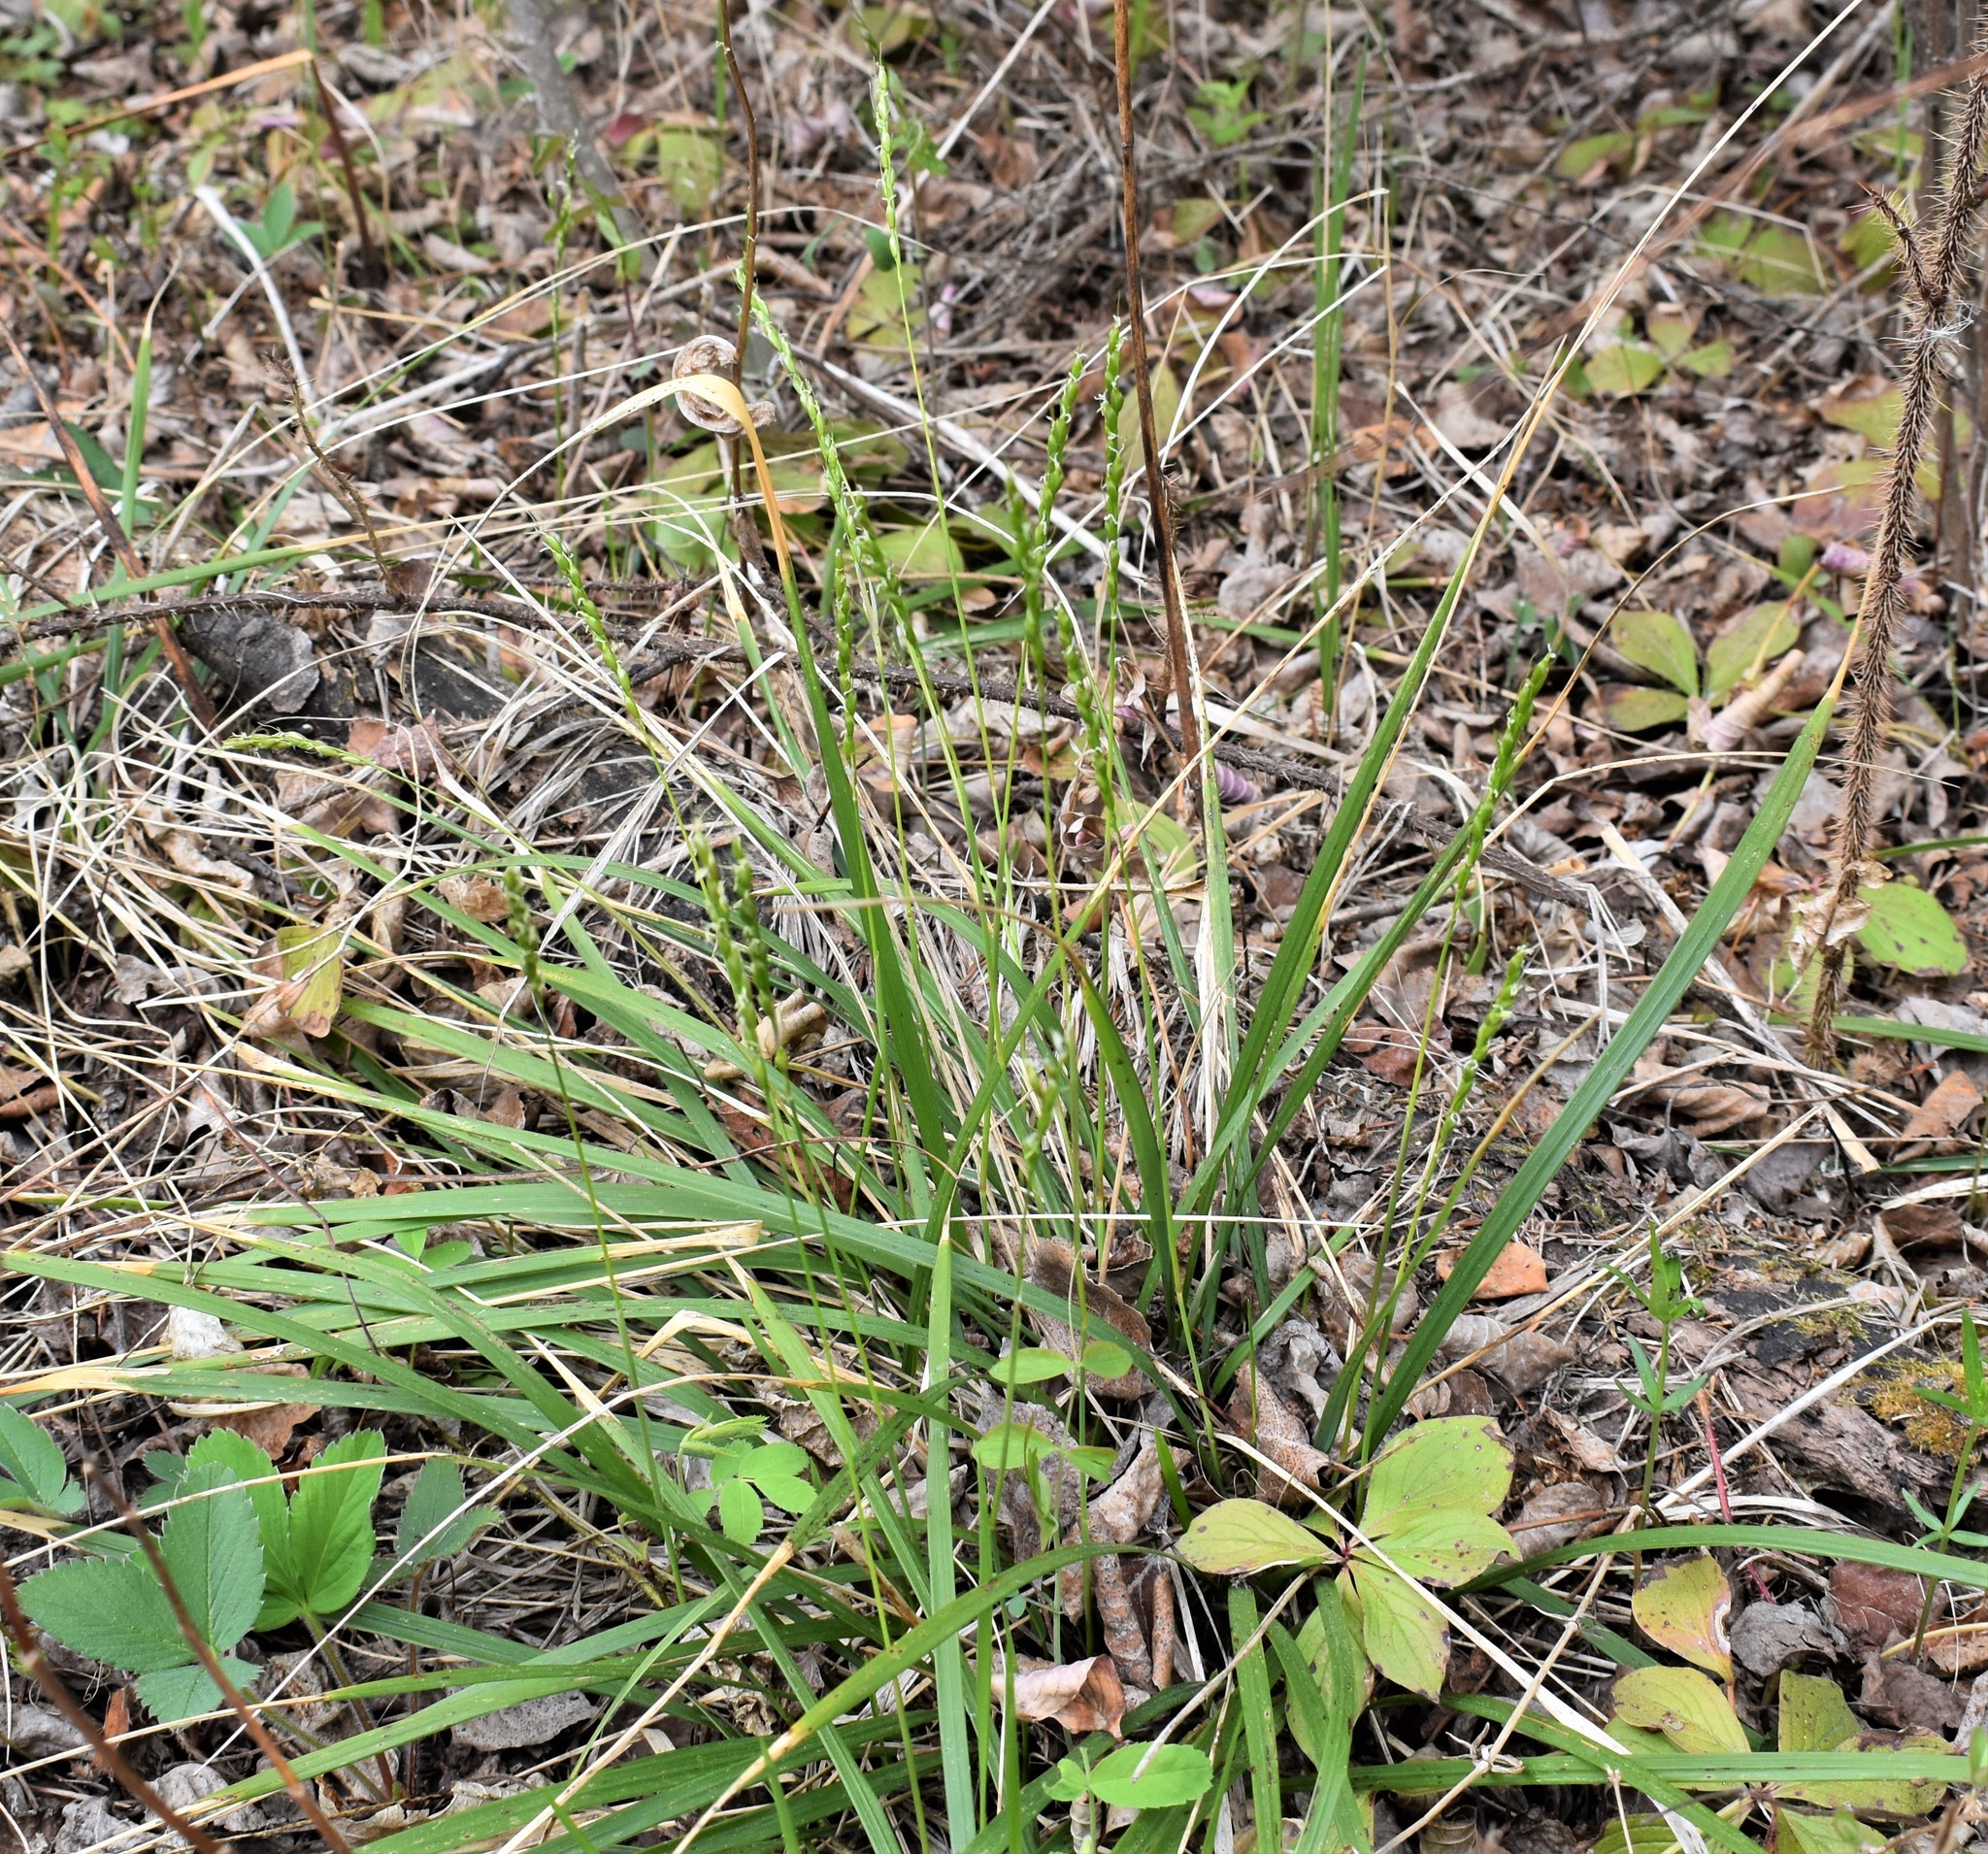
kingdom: Plantae
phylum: Tracheophyta
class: Liliopsida
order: Poales
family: Poaceae
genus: Oryzopsis
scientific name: Oryzopsis asperifolia
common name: Rough-leaved mountain rice
